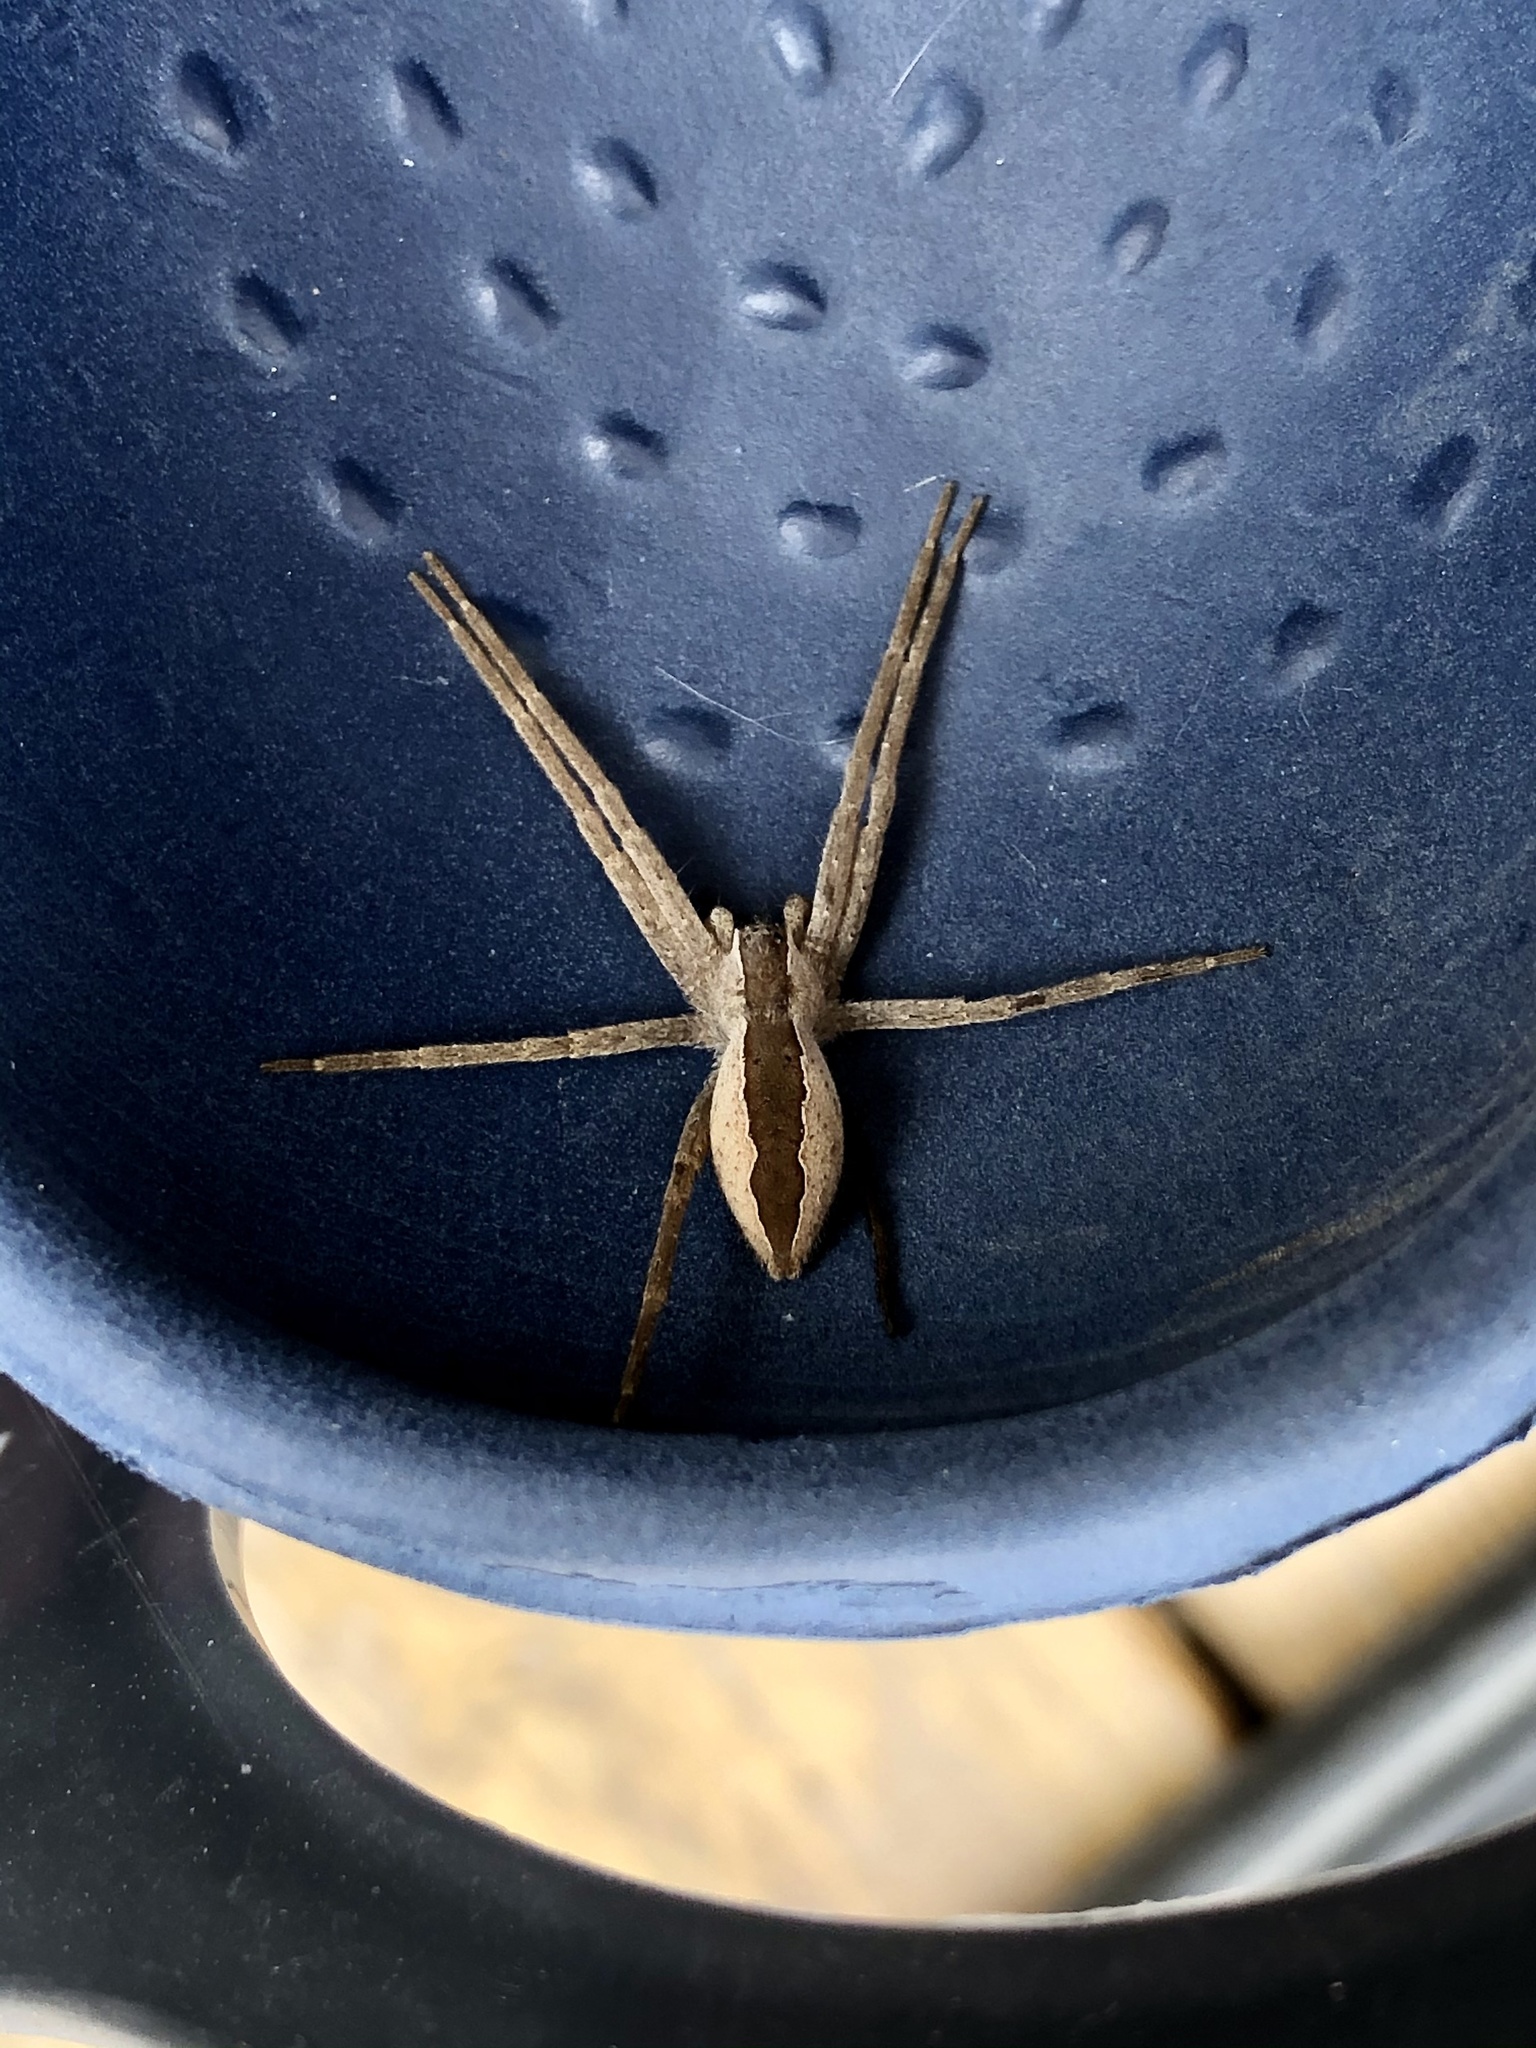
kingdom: Animalia
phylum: Arthropoda
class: Arachnida
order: Araneae
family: Pisauridae
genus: Pisaurina
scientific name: Pisaurina mira
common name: American nursery web spider
